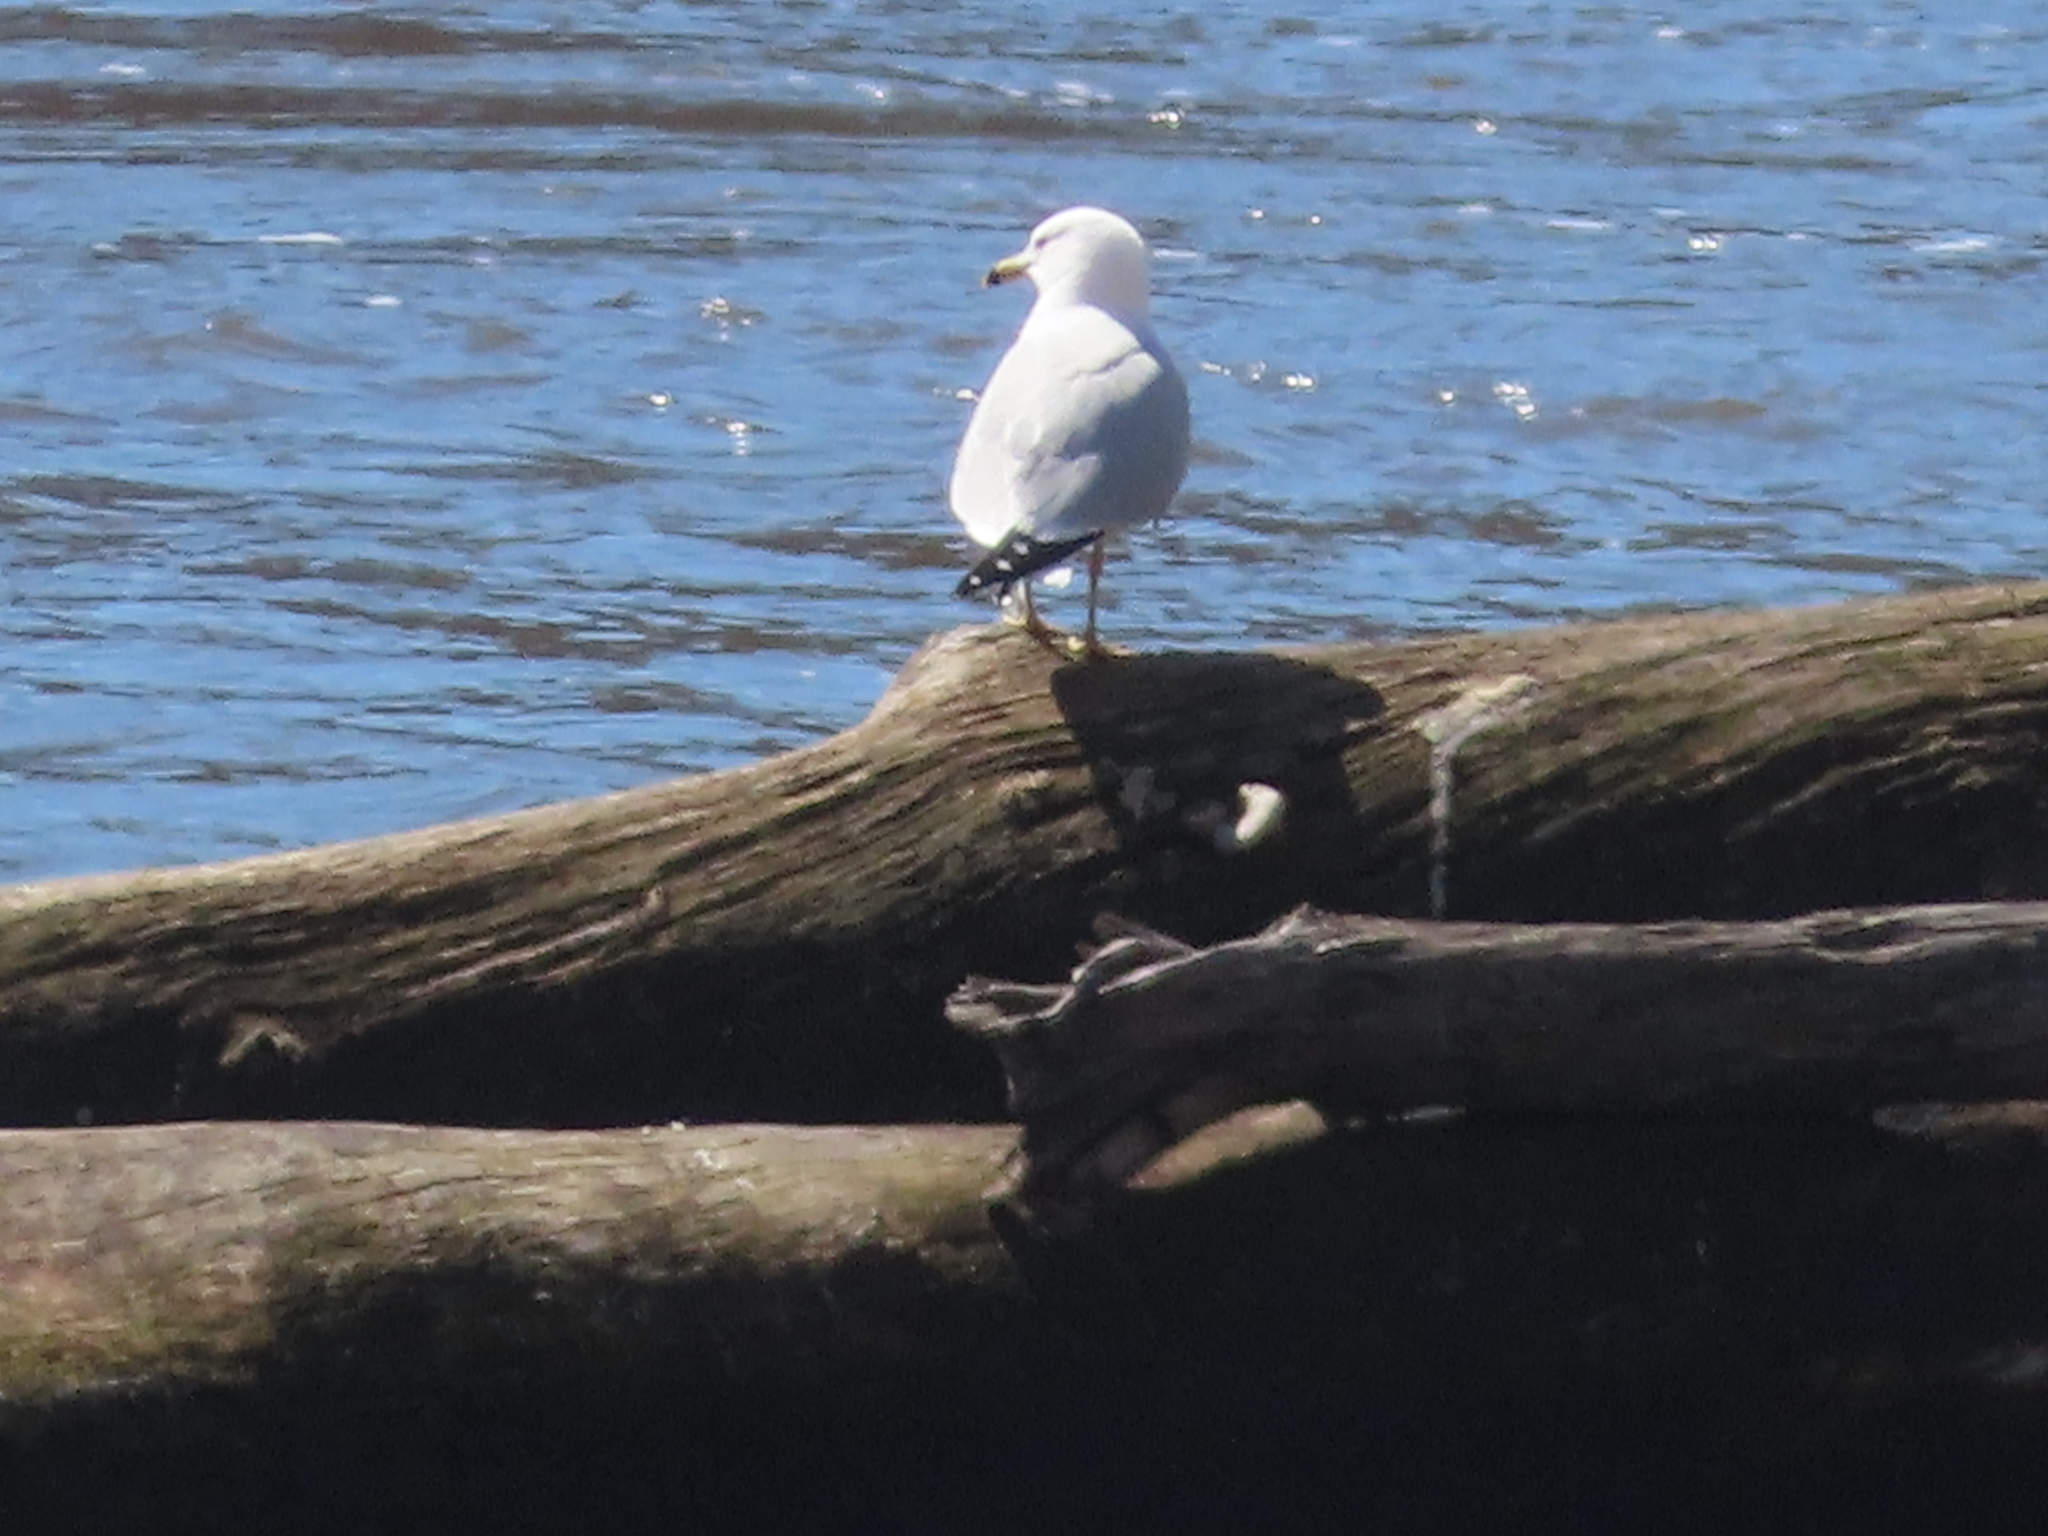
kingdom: Animalia
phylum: Chordata
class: Aves
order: Charadriiformes
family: Laridae
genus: Larus
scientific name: Larus delawarensis
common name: Ring-billed gull
